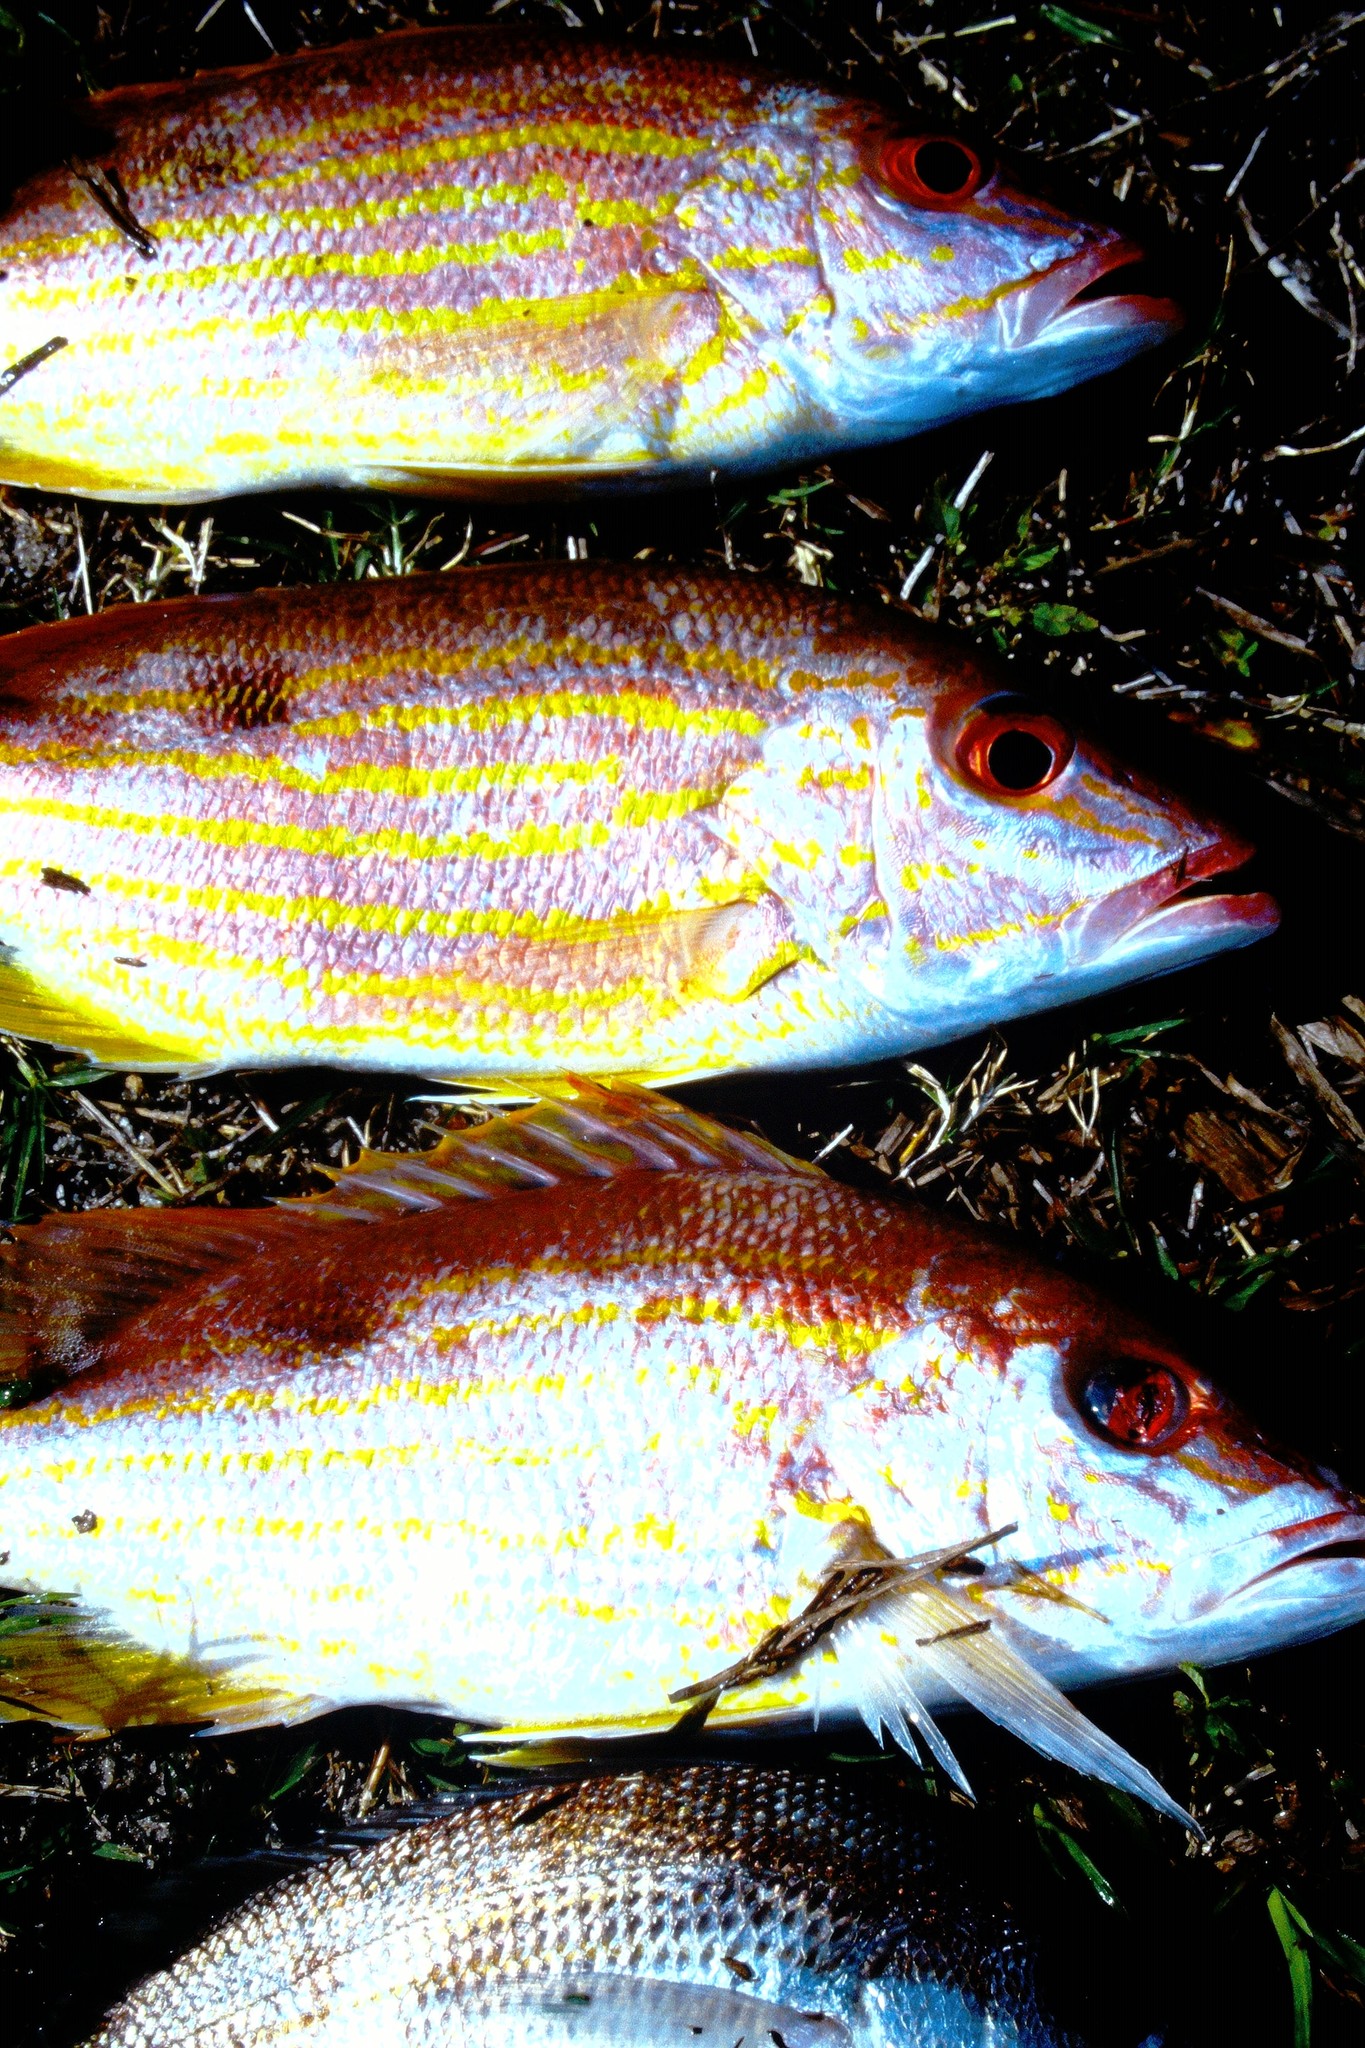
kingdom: Animalia
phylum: Chordata
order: Perciformes
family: Lutjanidae
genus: Lutjanus
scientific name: Lutjanus synagris
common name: Lane snapper
